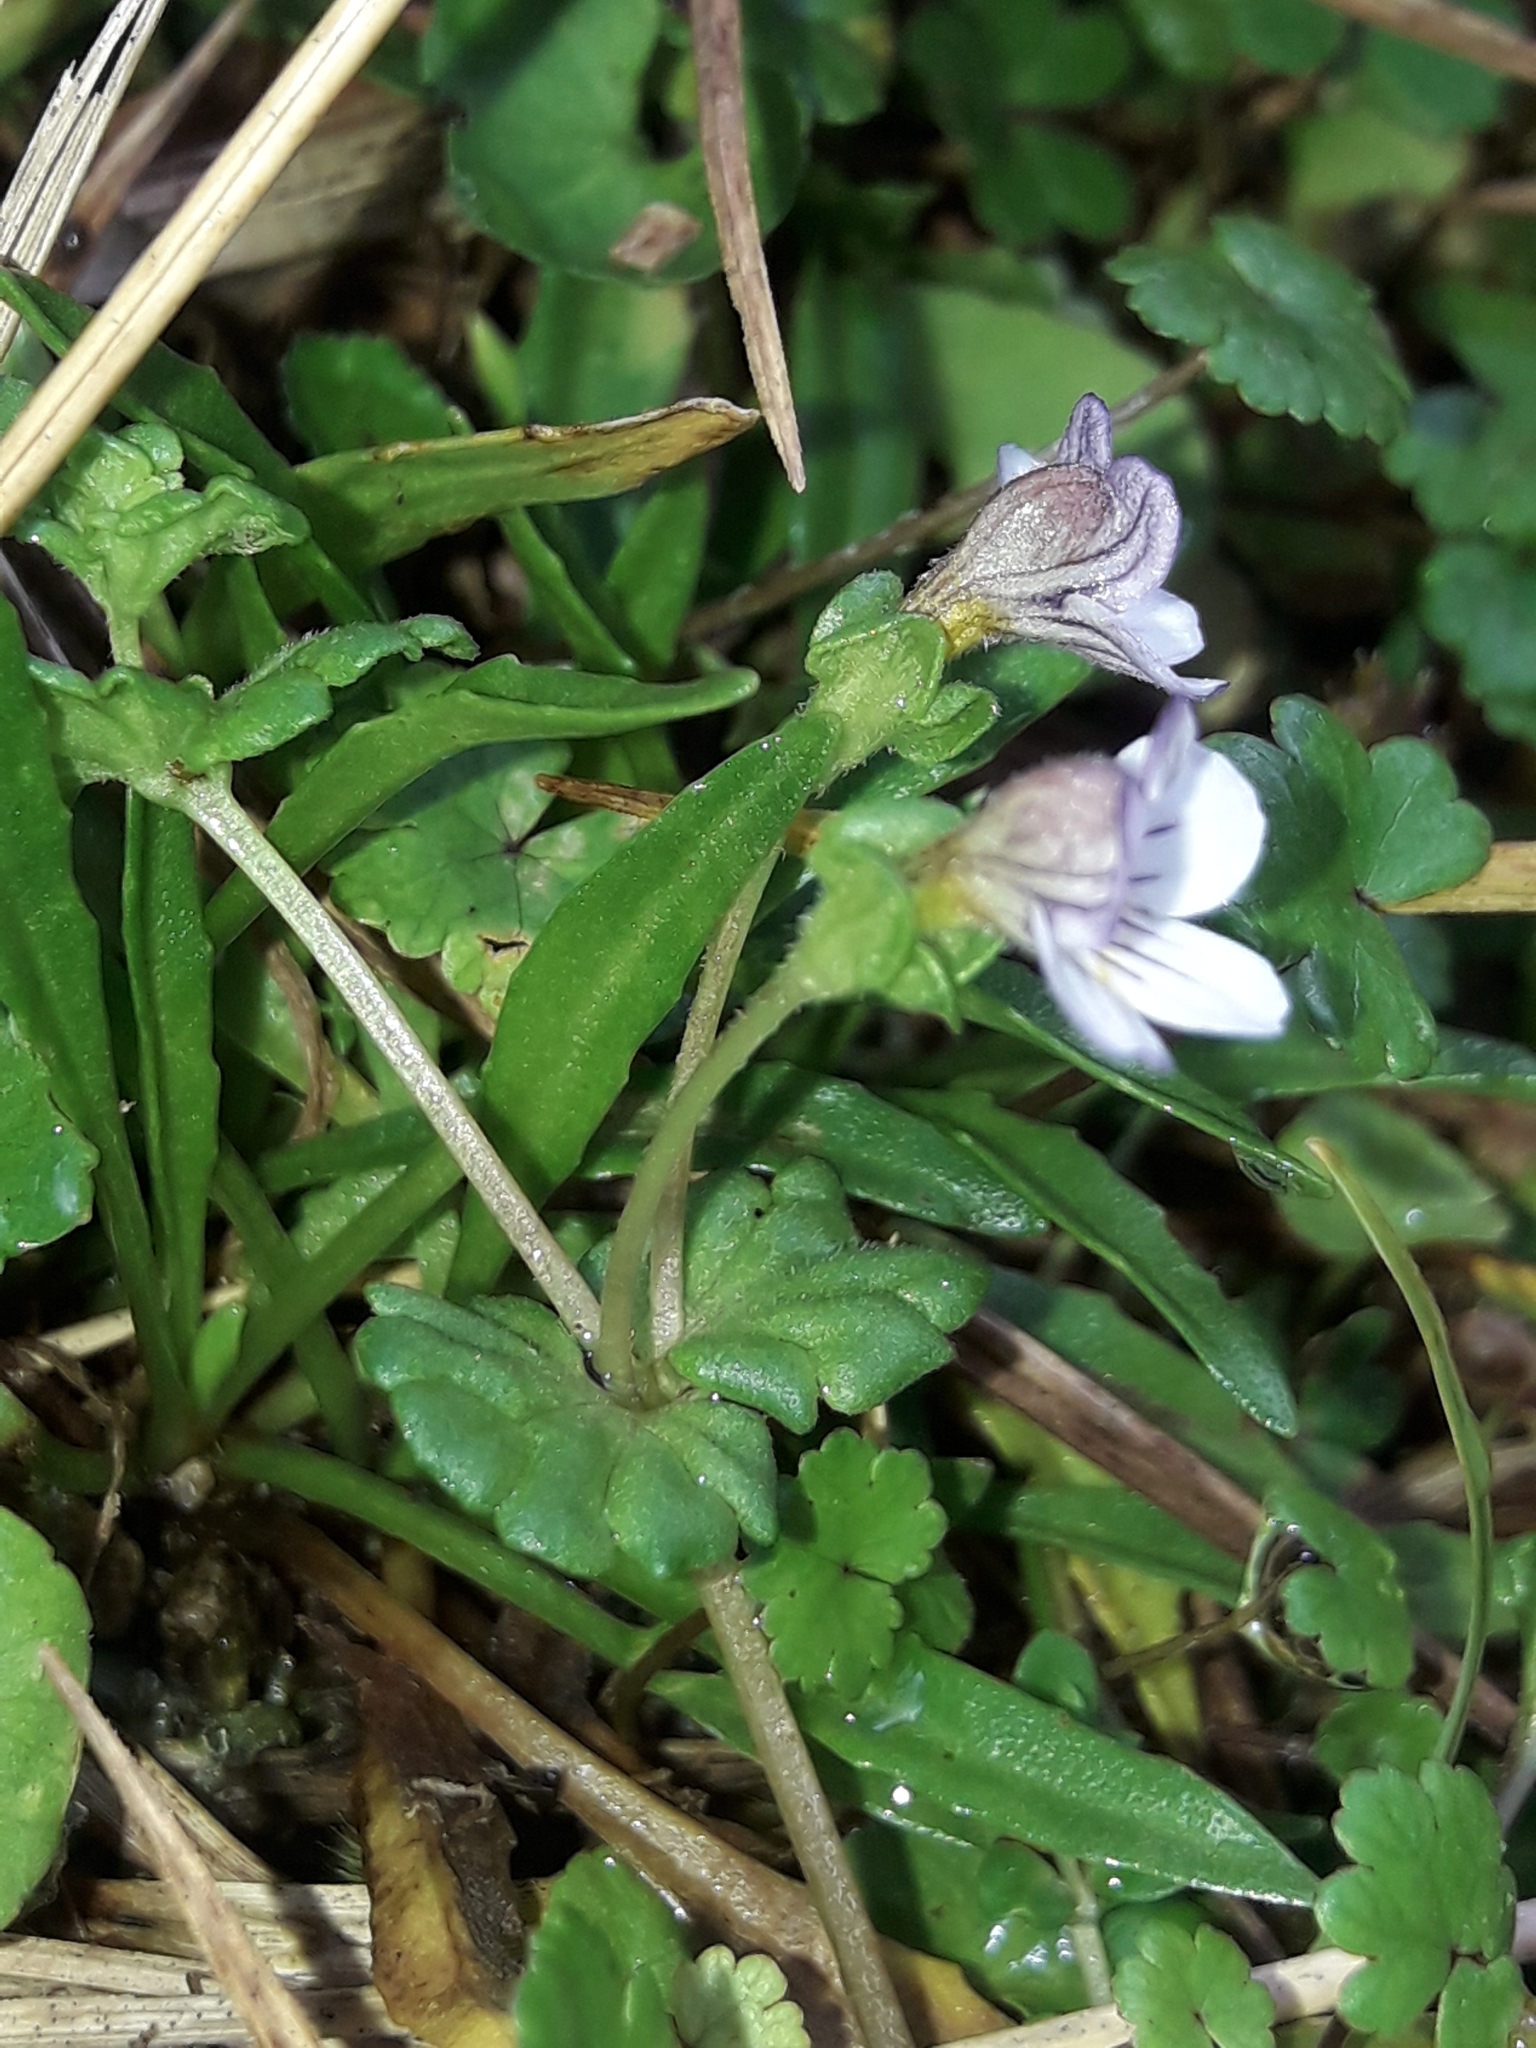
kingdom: Plantae
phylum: Tracheophyta
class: Magnoliopsida
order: Lamiales
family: Orobanchaceae
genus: Euphrasia
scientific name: Euphrasia cheesemanii
